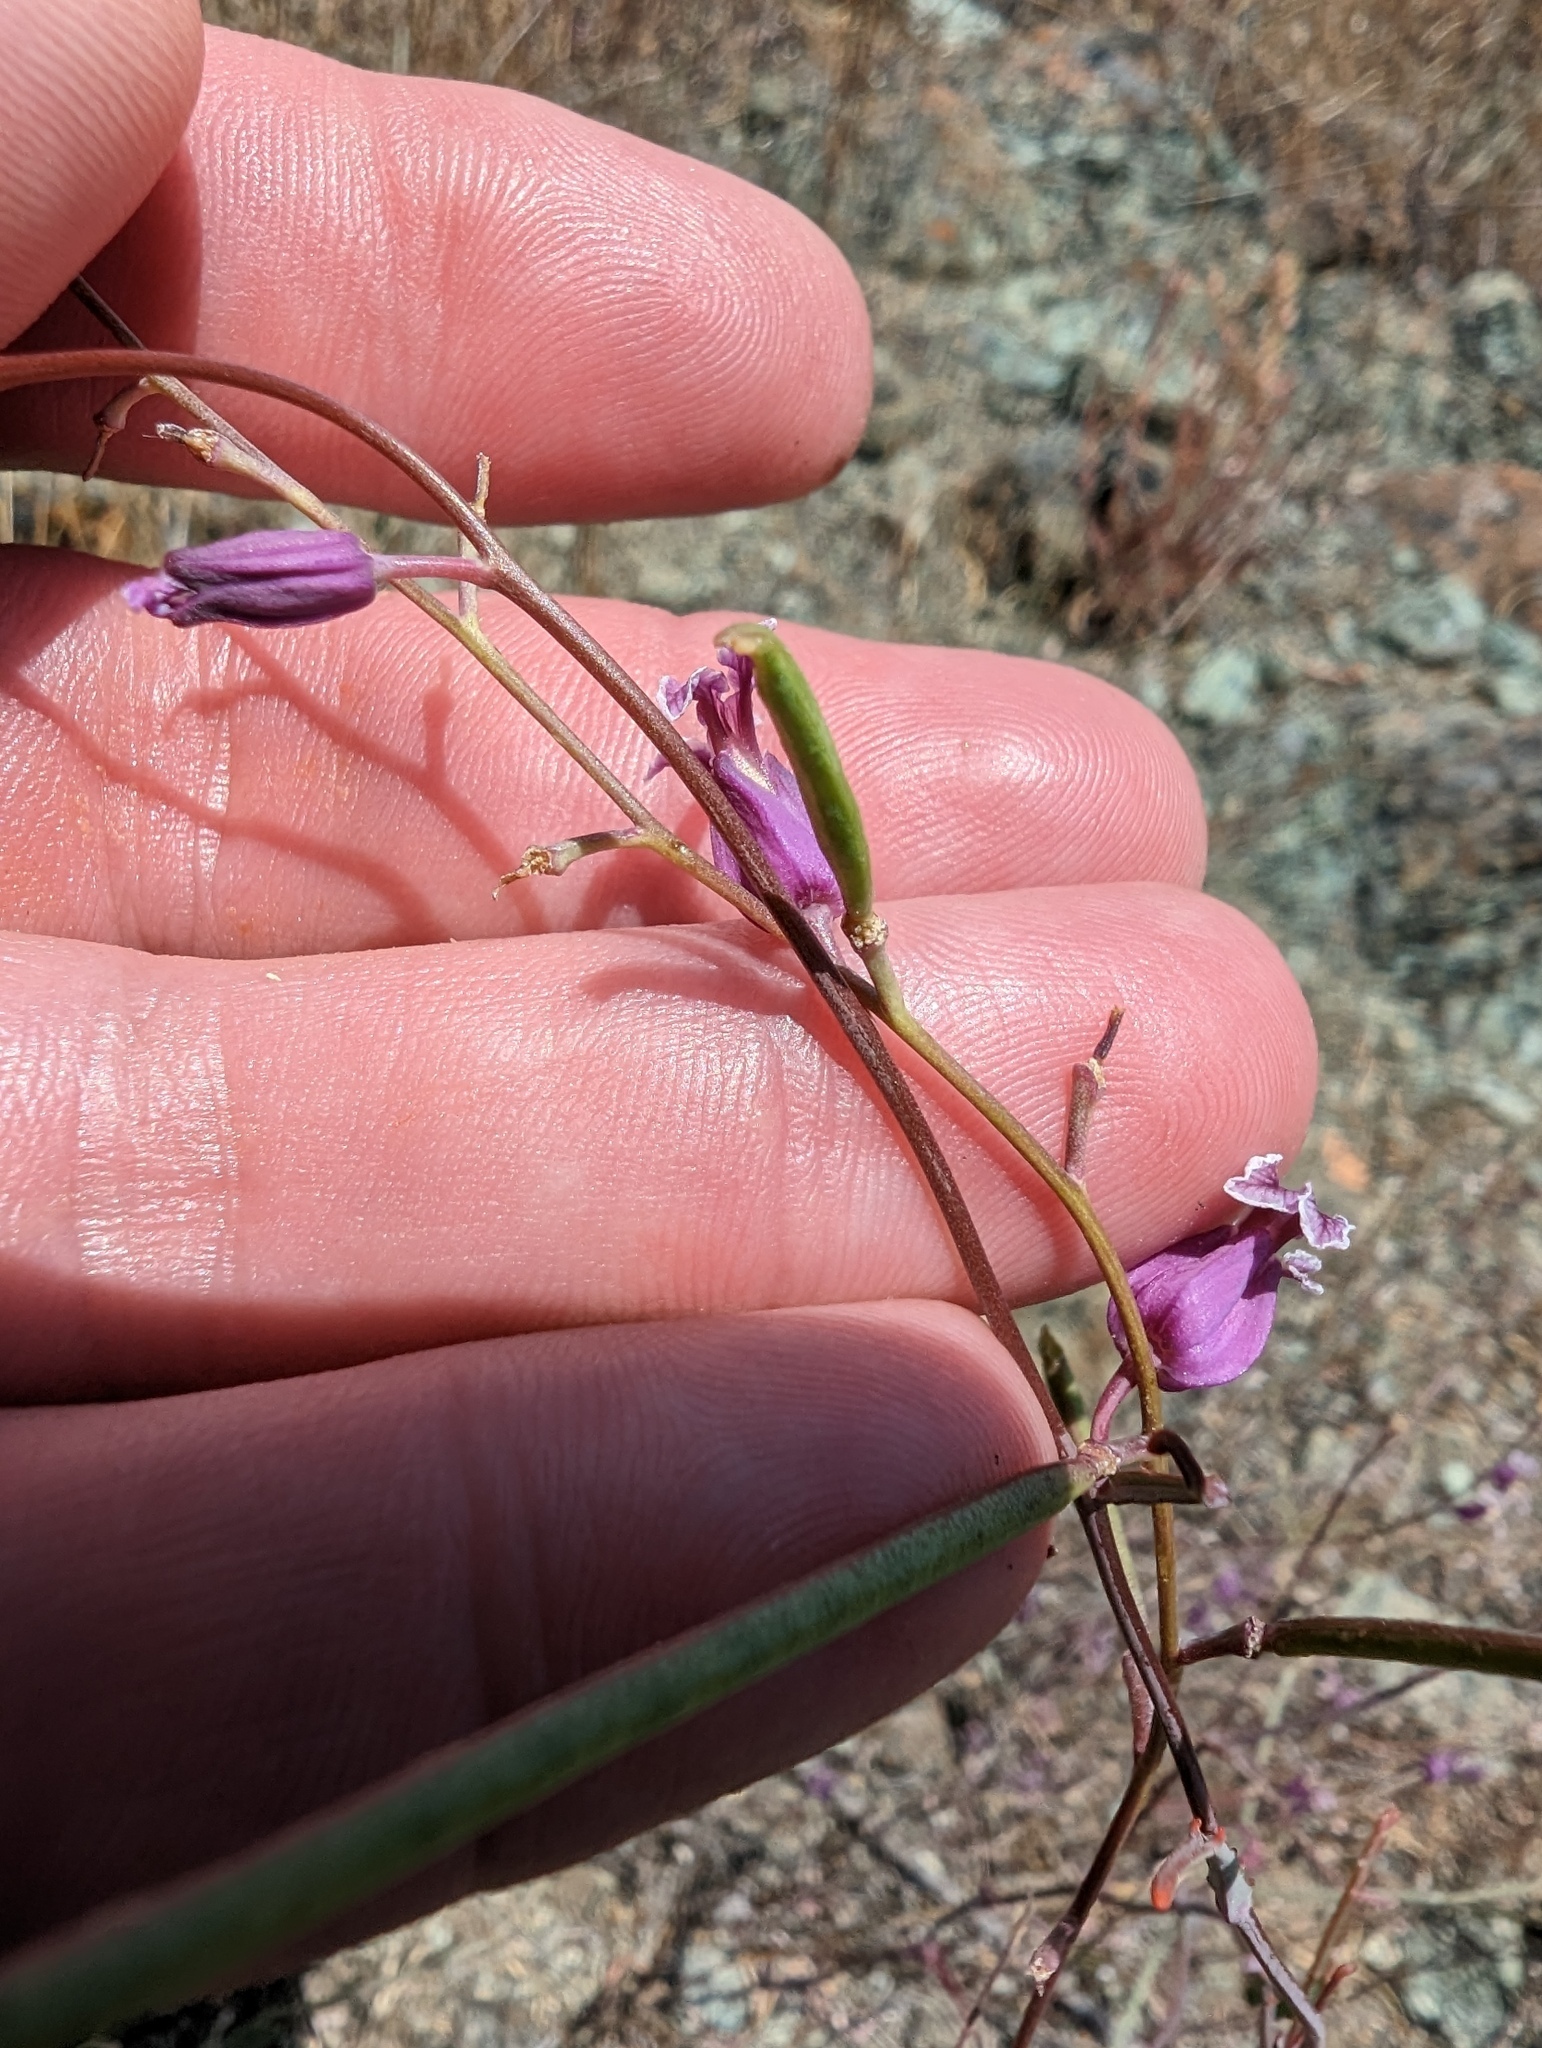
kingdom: Plantae
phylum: Tracheophyta
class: Magnoliopsida
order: Brassicales
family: Brassicaceae
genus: Streptanthus
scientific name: Streptanthus glandulosus
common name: Jewel-flower
